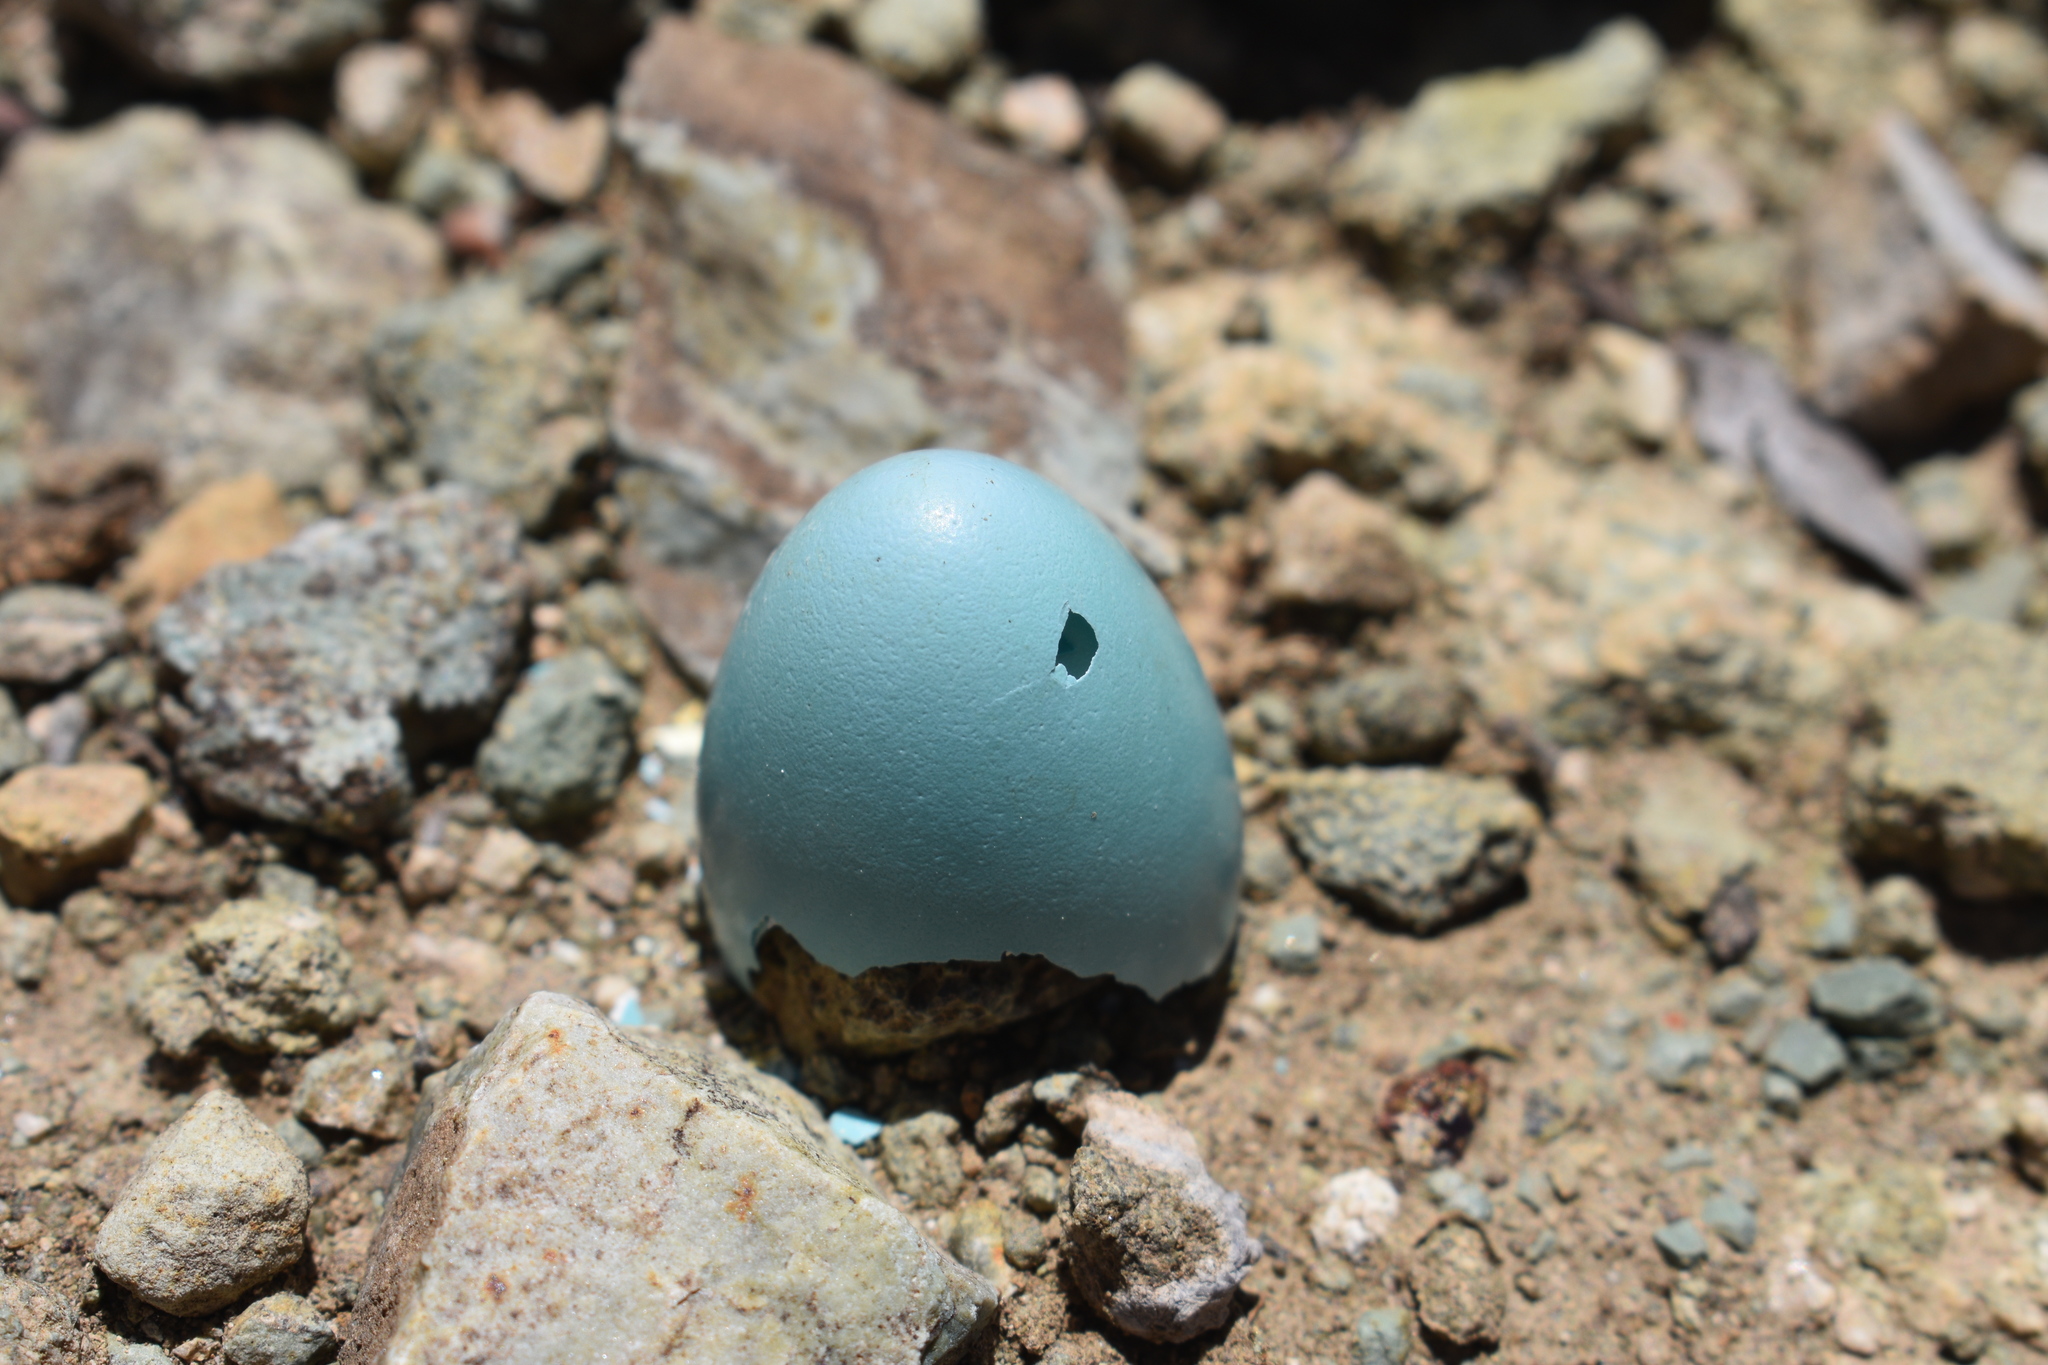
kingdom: Animalia
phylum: Chordata
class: Aves
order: Passeriformes
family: Turdidae
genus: Turdus
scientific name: Turdus migratorius
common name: American robin
